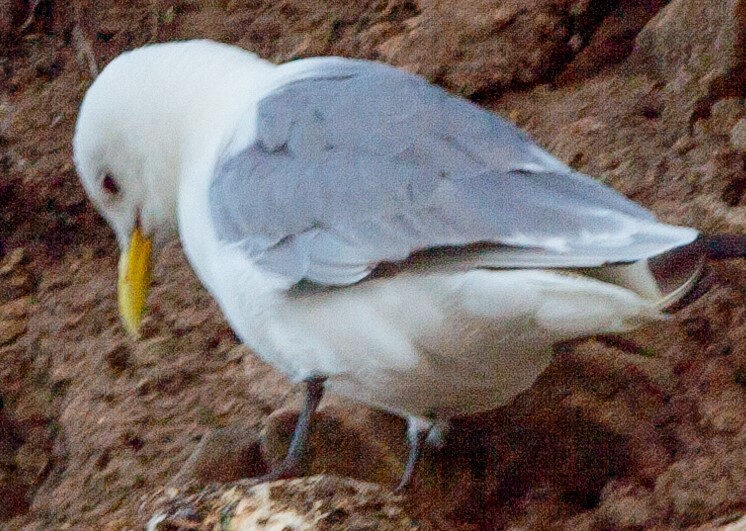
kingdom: Animalia
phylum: Chordata
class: Aves
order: Charadriiformes
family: Laridae
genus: Rissa
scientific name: Rissa tridactyla
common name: Black-legged kittiwake
